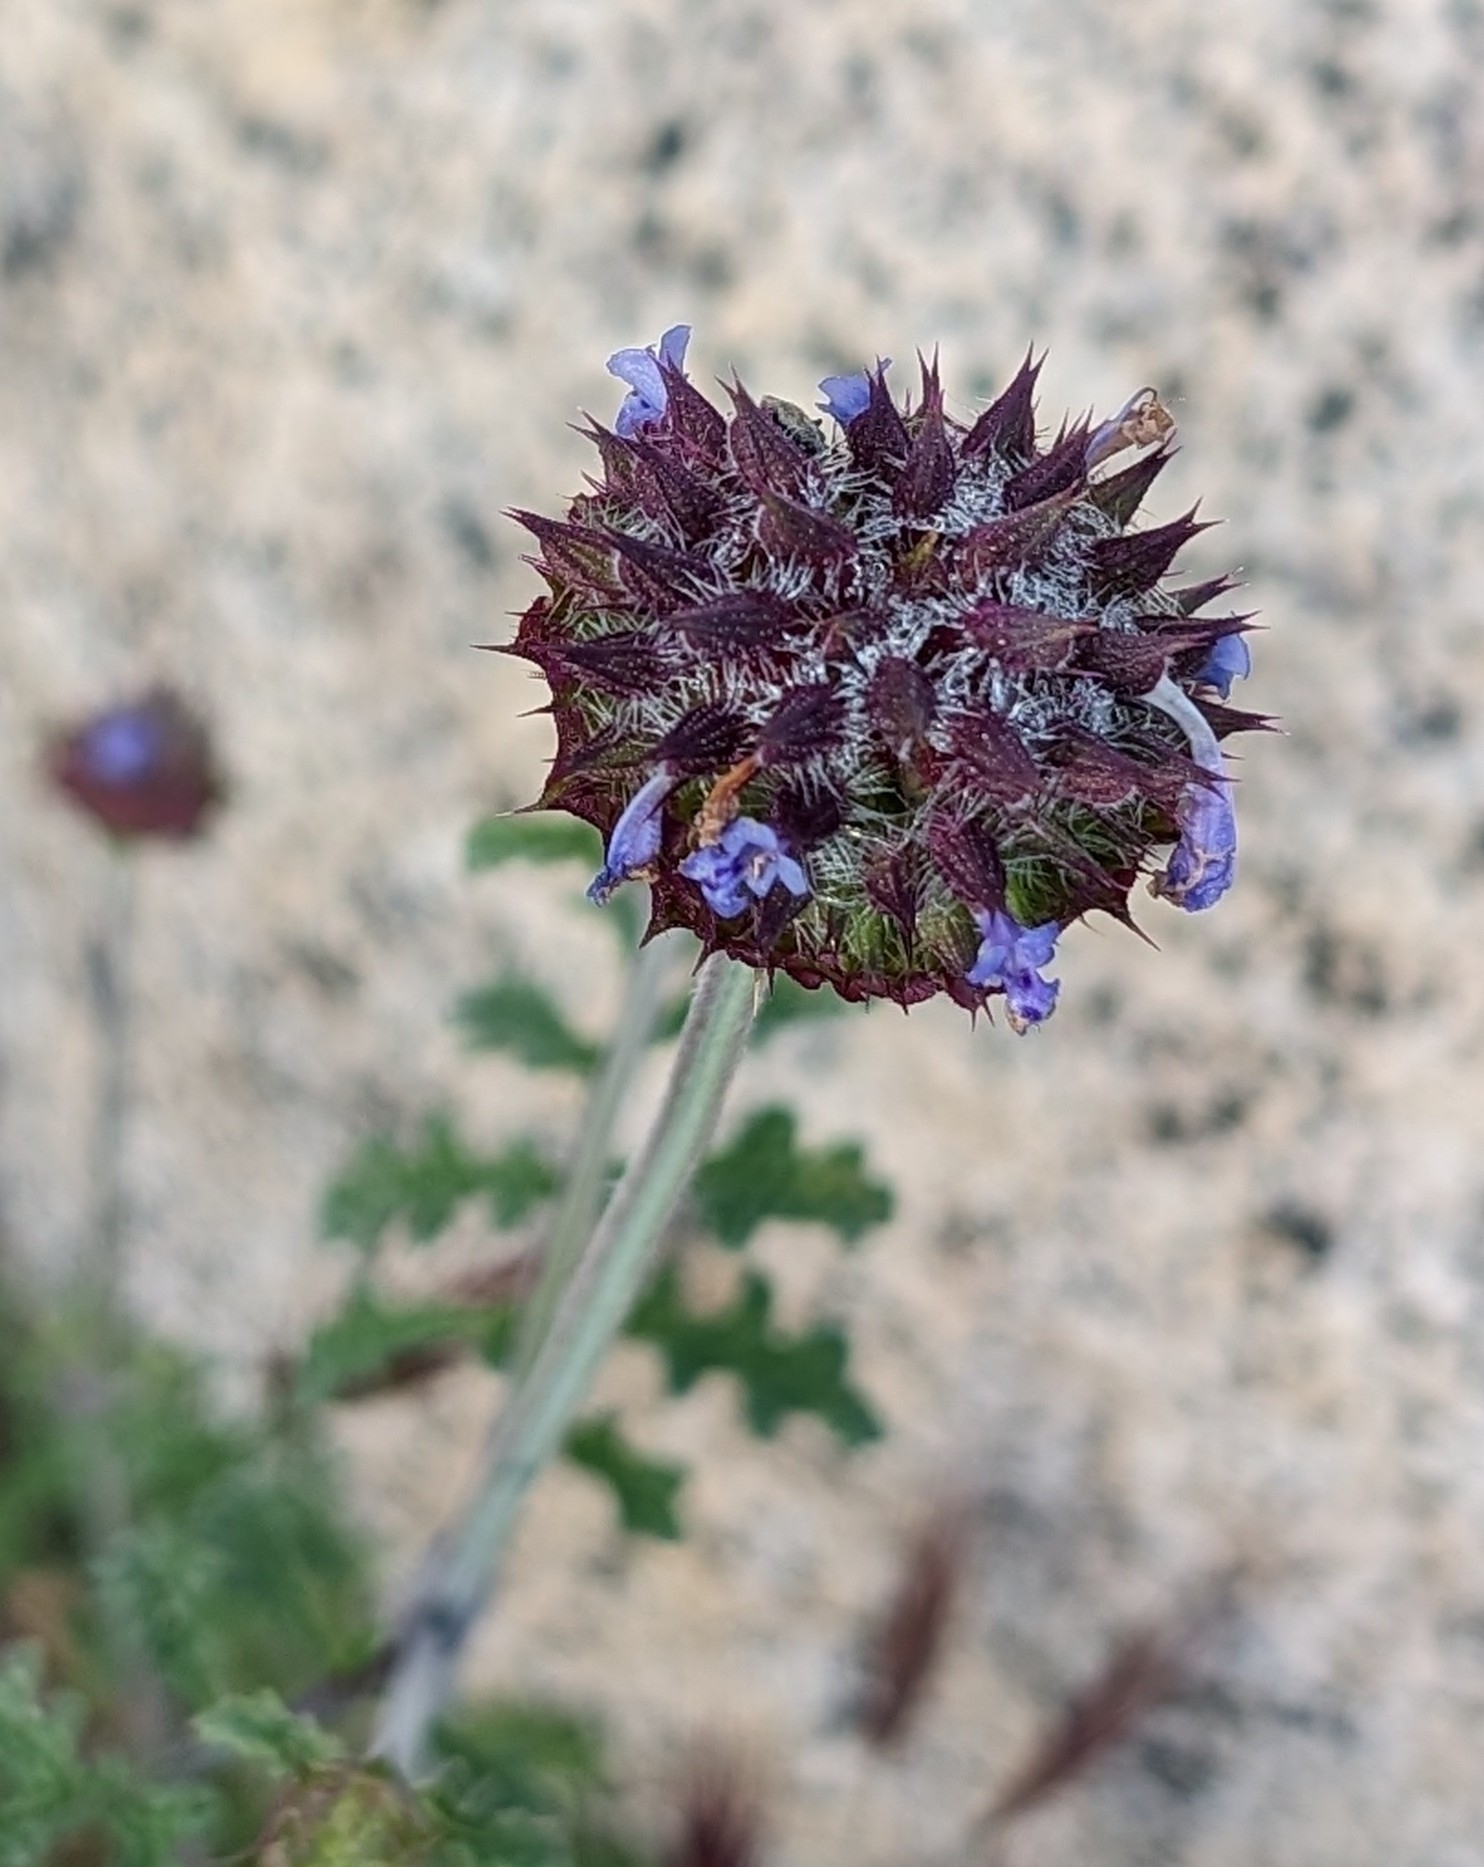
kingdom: Plantae
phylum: Tracheophyta
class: Magnoliopsida
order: Lamiales
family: Lamiaceae
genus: Salvia
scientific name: Salvia columbariae
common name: Chia
